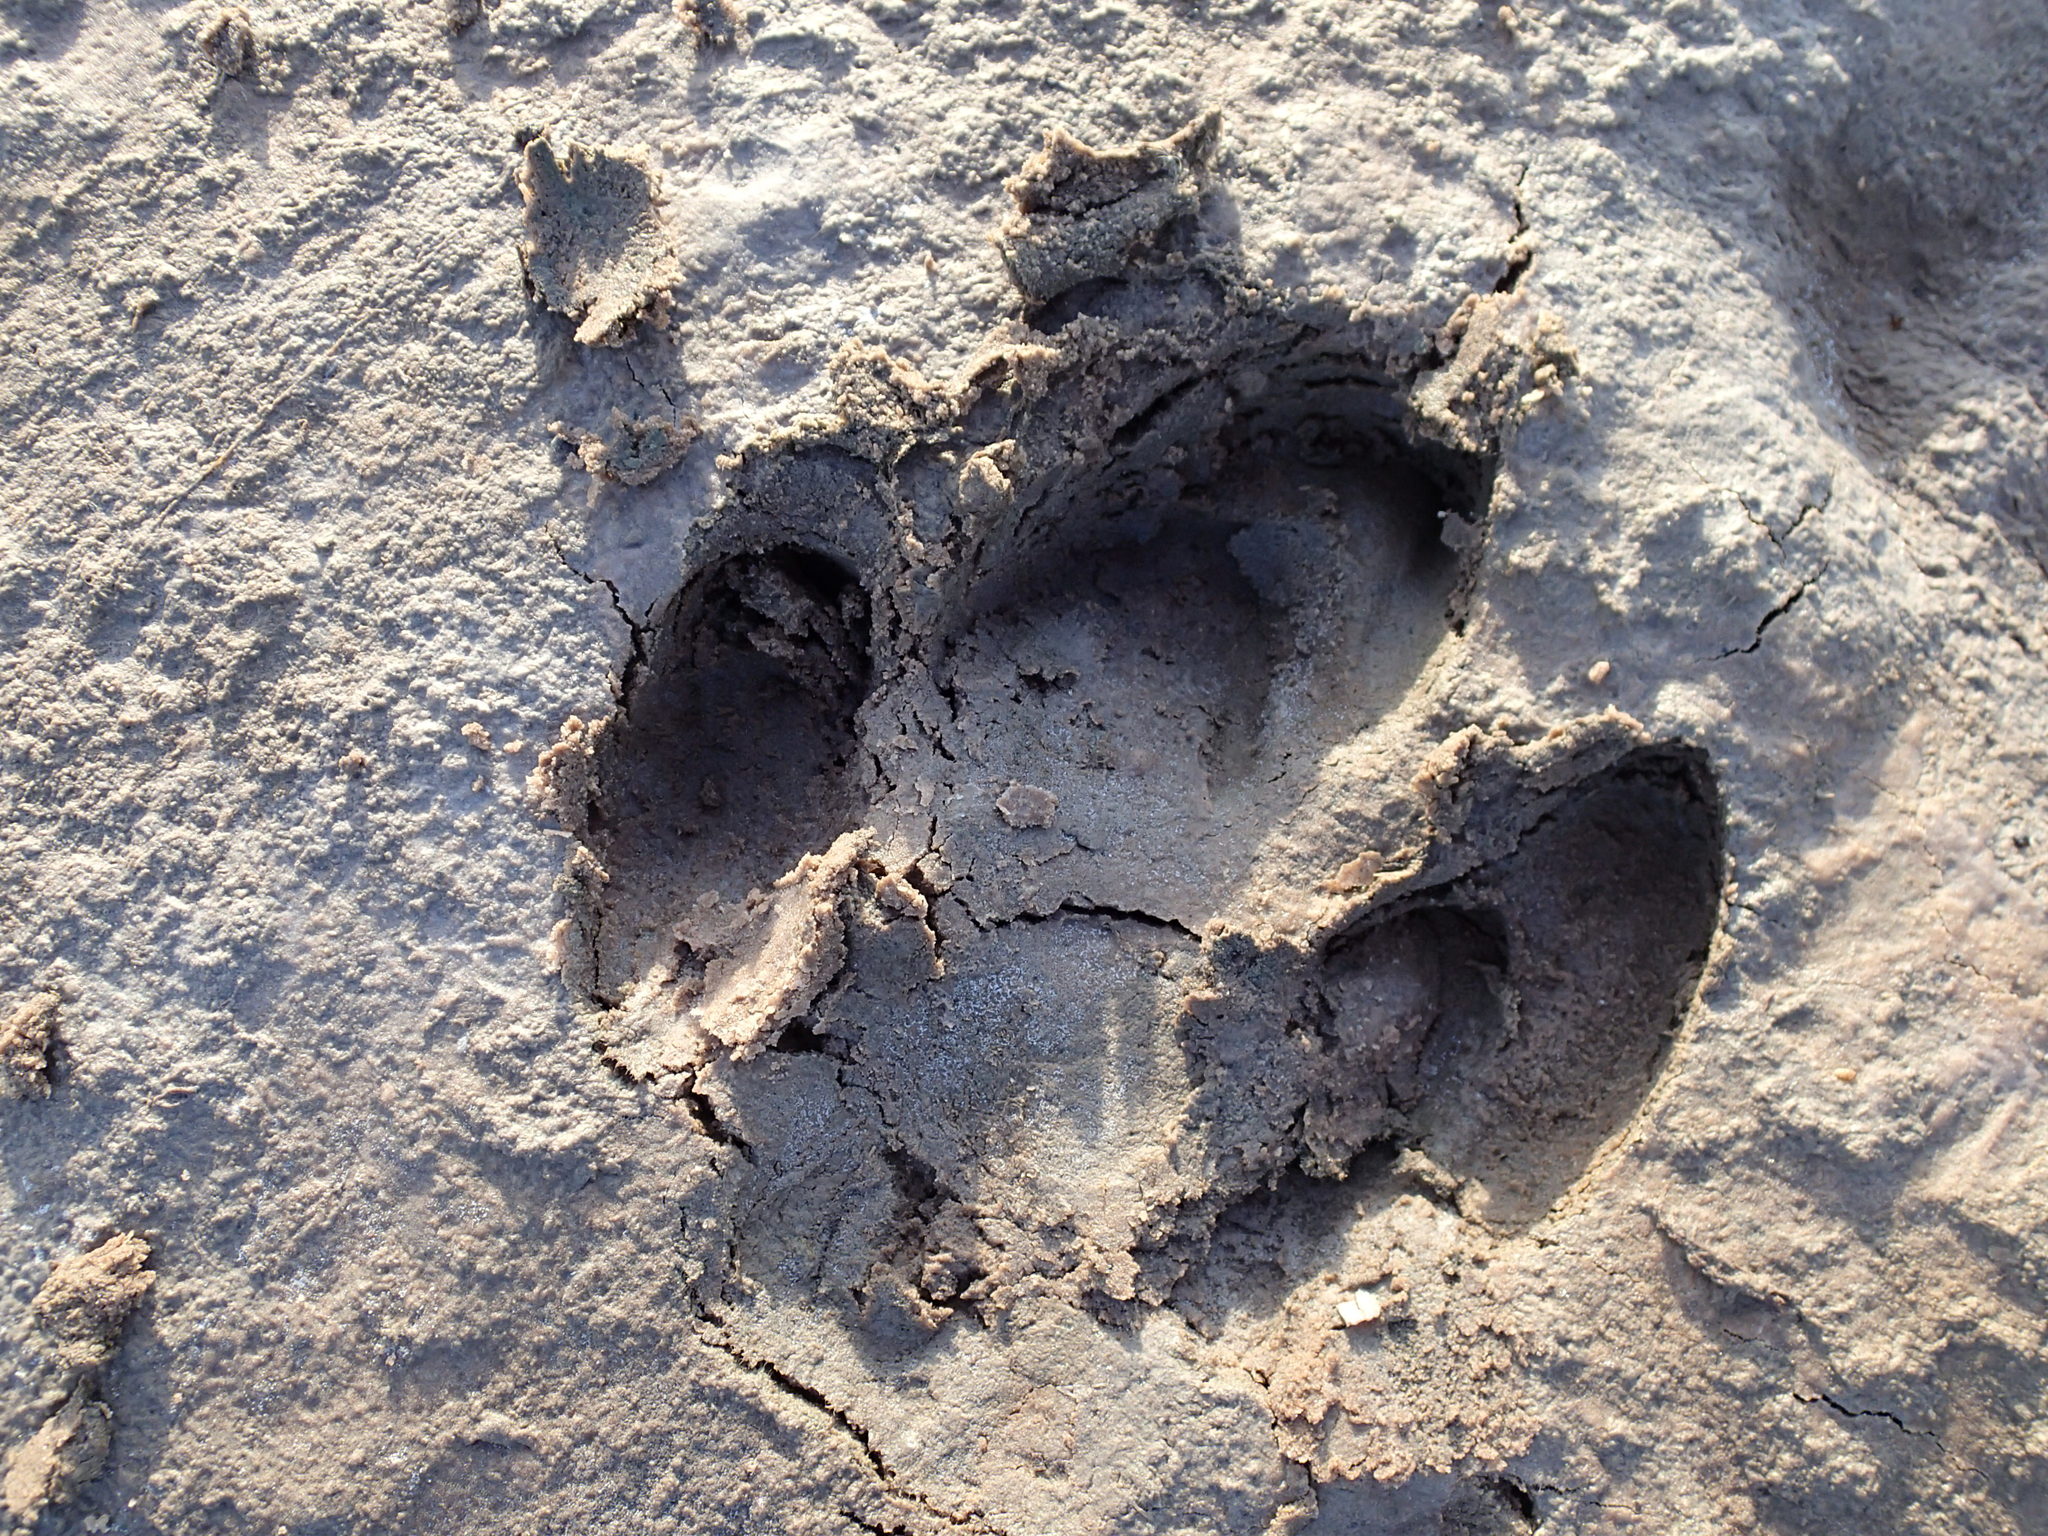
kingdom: Animalia
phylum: Chordata
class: Mammalia
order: Perissodactyla
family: Tapiridae
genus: Tapirus
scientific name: Tapirus terrestris
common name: Brazilian tapir
